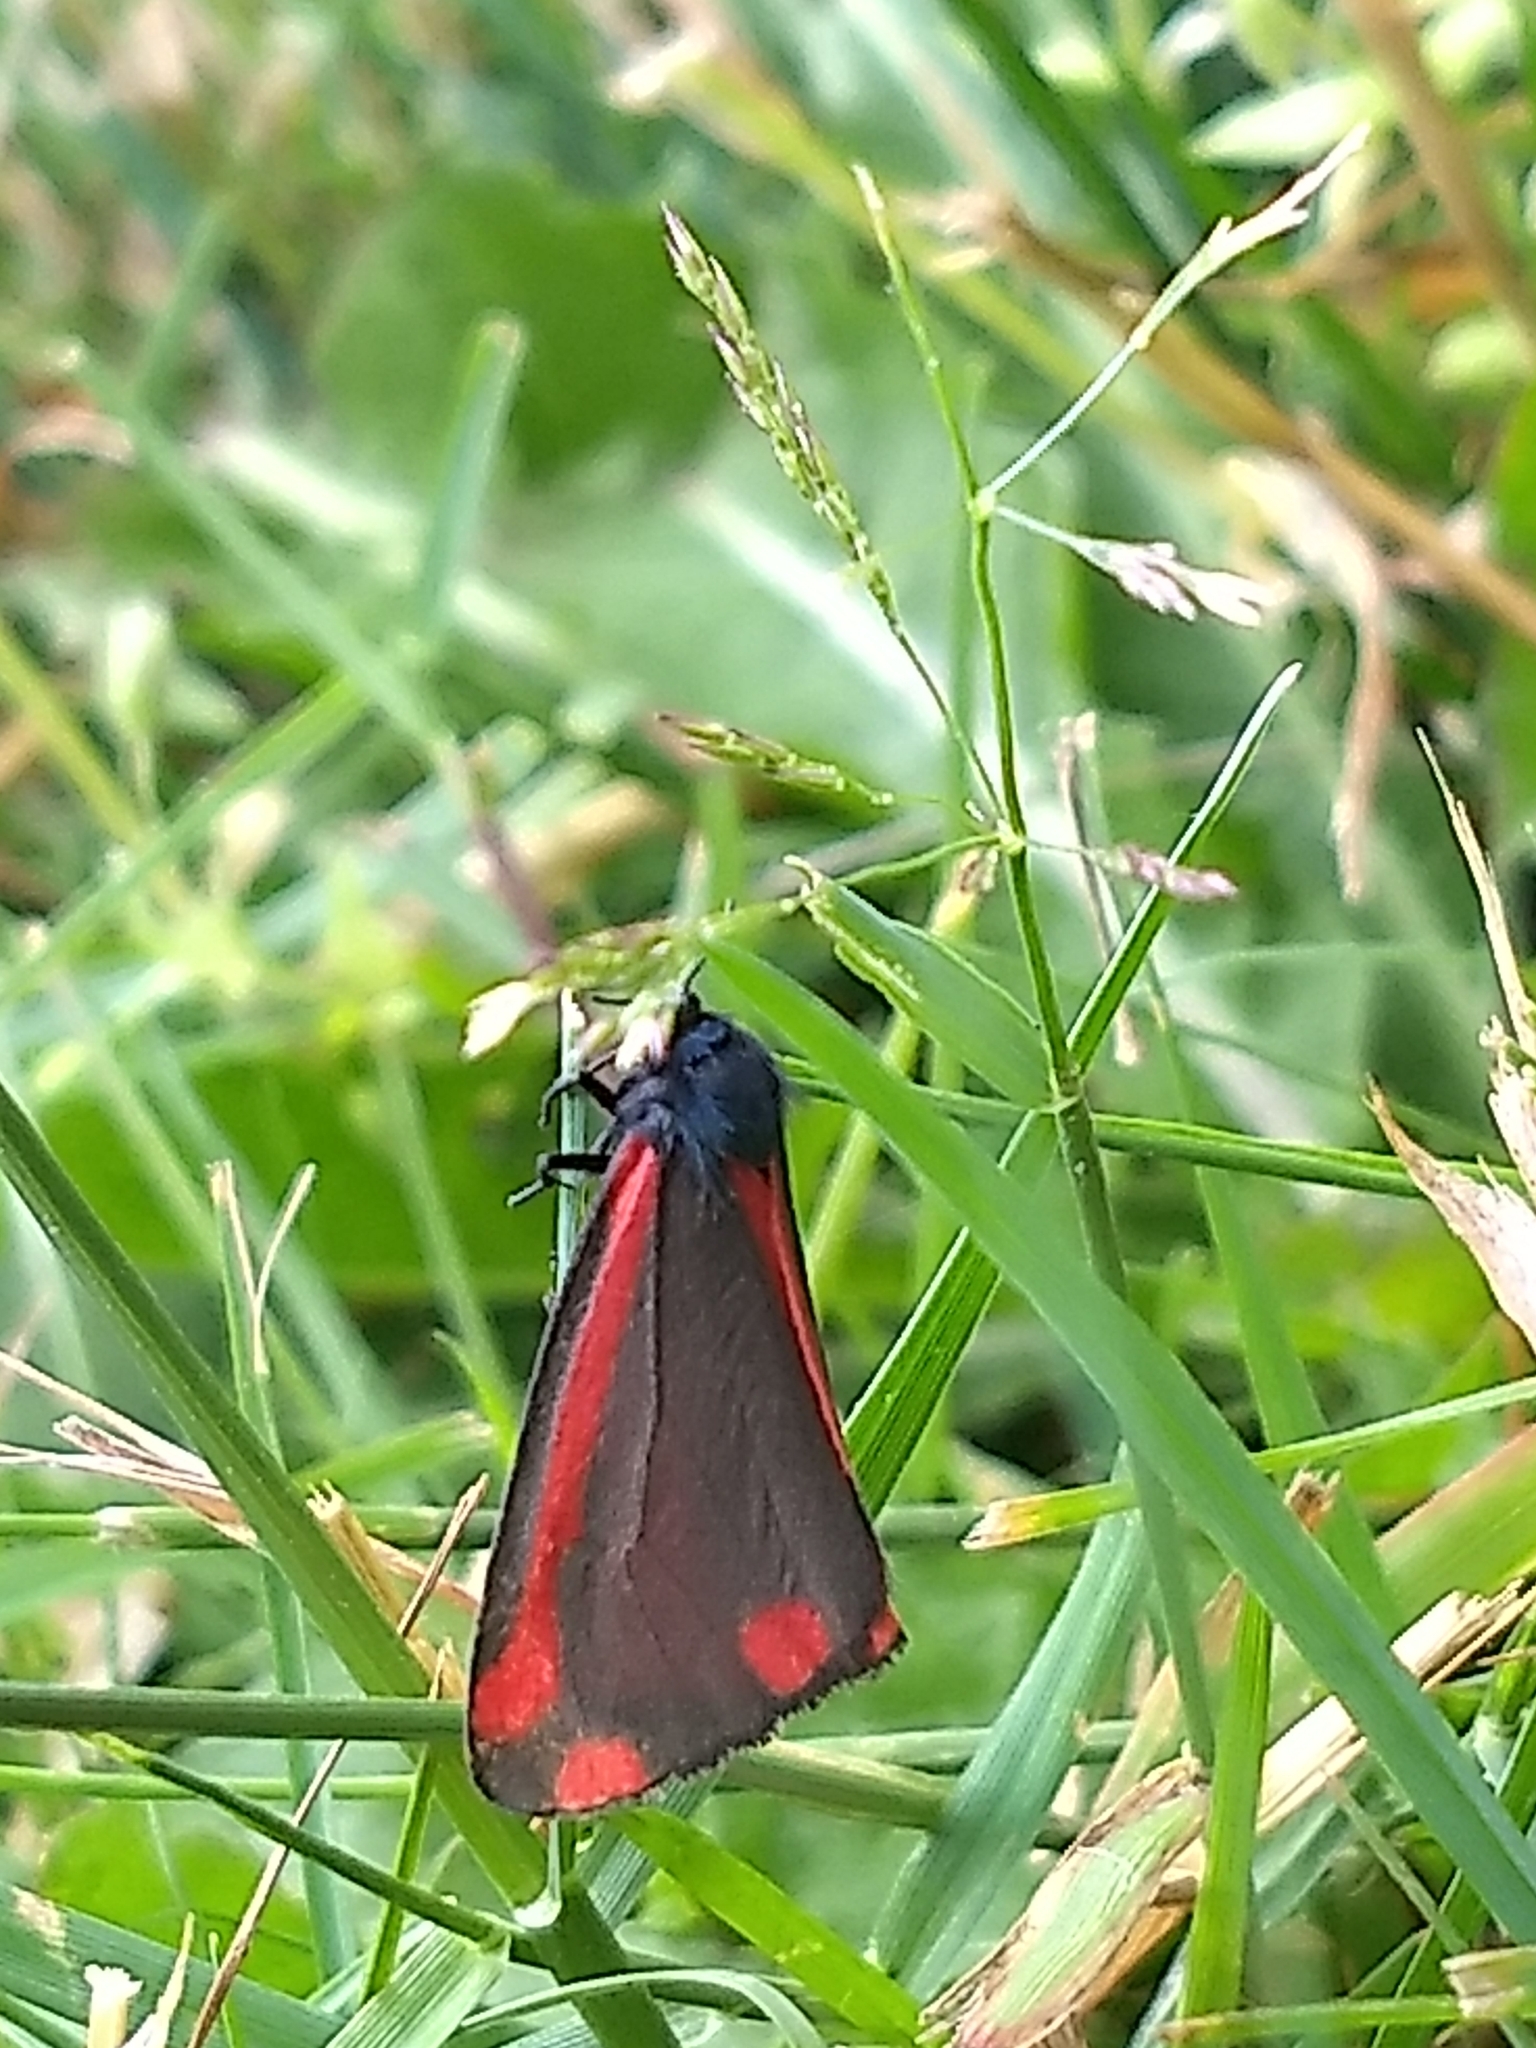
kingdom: Animalia
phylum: Arthropoda
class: Insecta
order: Lepidoptera
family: Erebidae
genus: Tyria
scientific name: Tyria jacobaeae
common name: Cinnabar
